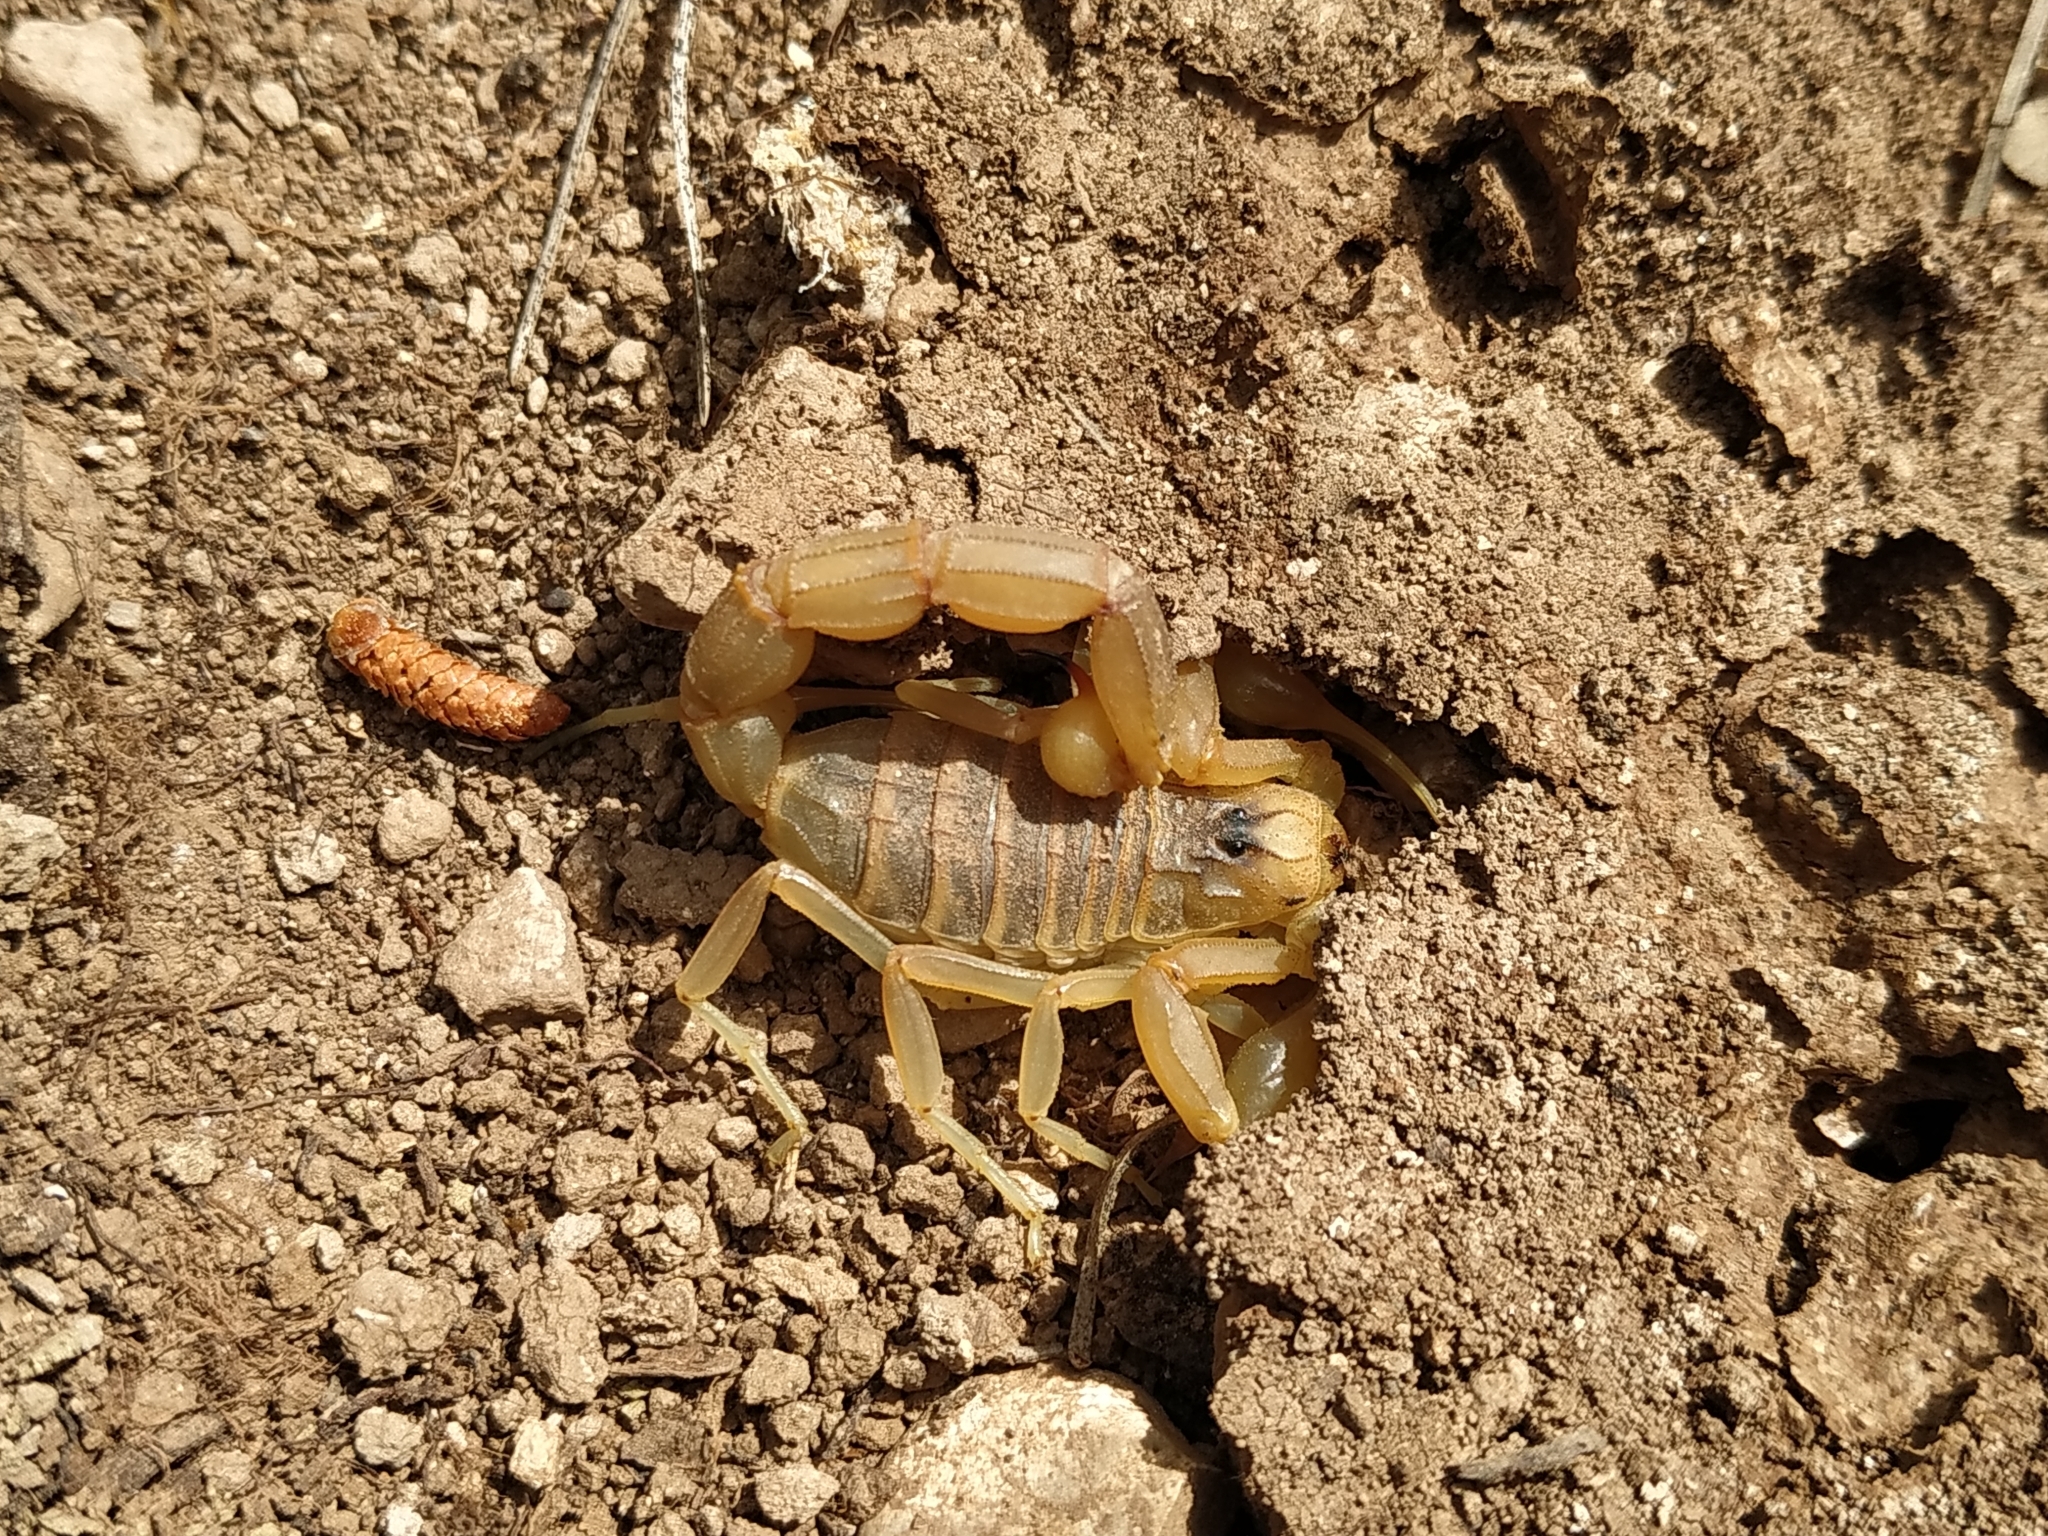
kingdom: Animalia
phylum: Arthropoda
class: Arachnida
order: Scorpiones
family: Buthidae
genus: Buthus
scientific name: Buthus occitanus
